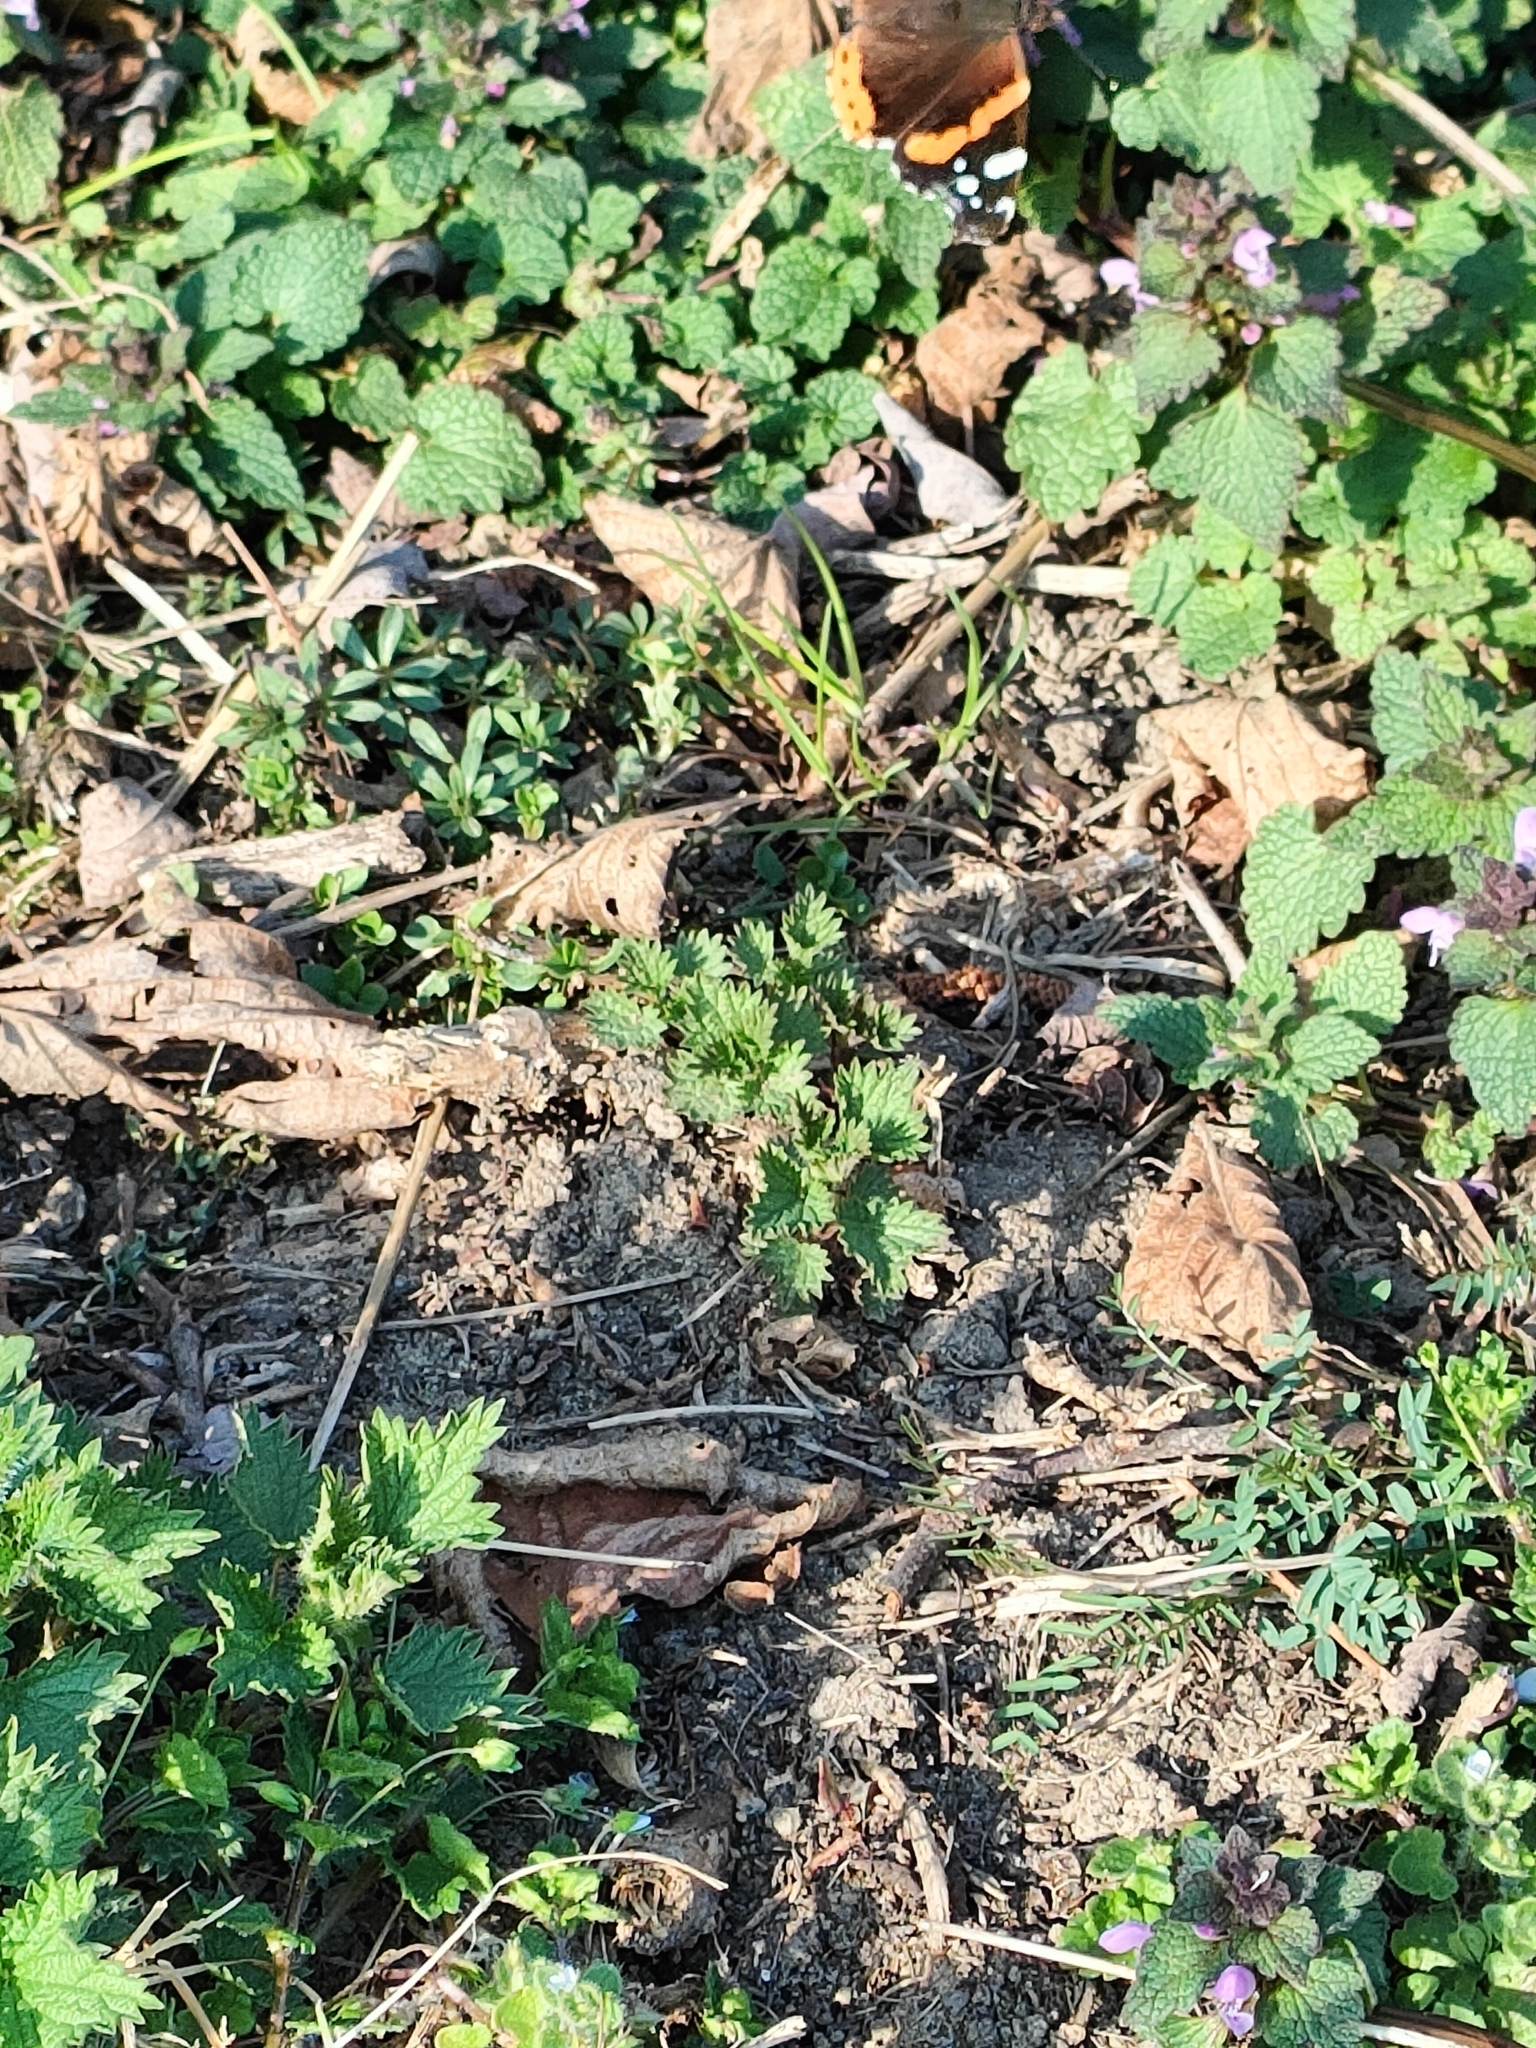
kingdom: Animalia
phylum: Arthropoda
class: Insecta
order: Lepidoptera
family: Nymphalidae
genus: Vanessa
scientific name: Vanessa atalanta
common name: Red admiral
